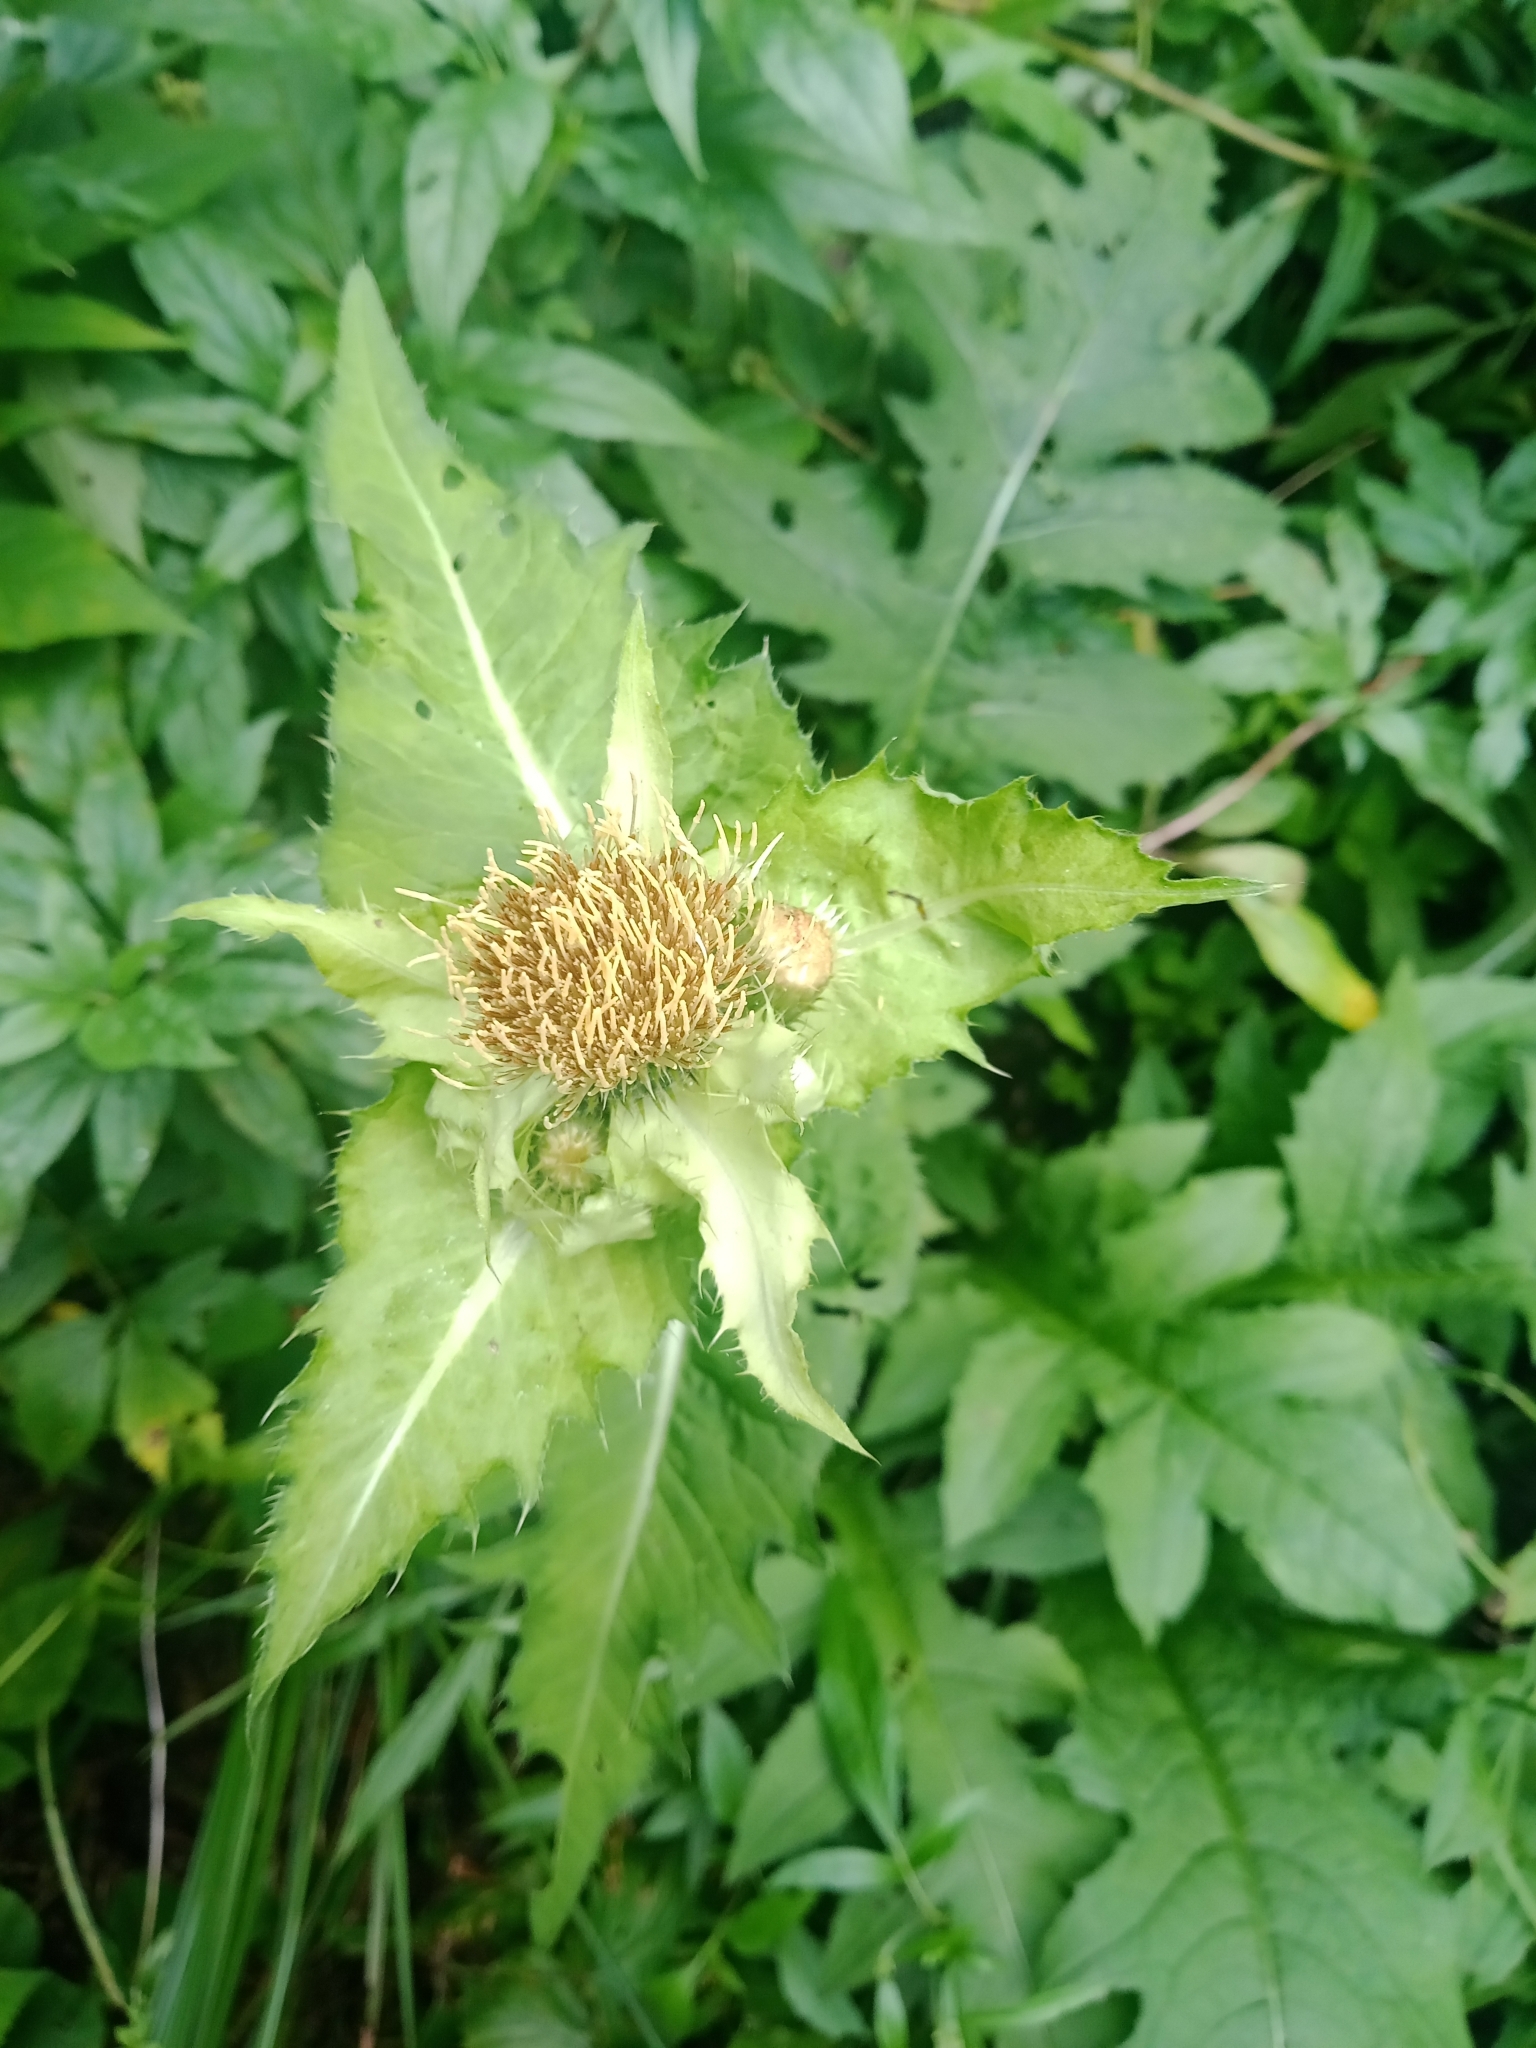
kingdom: Plantae
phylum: Tracheophyta
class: Magnoliopsida
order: Asterales
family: Asteraceae
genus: Cirsium
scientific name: Cirsium oleraceum
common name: Cabbage thistle
